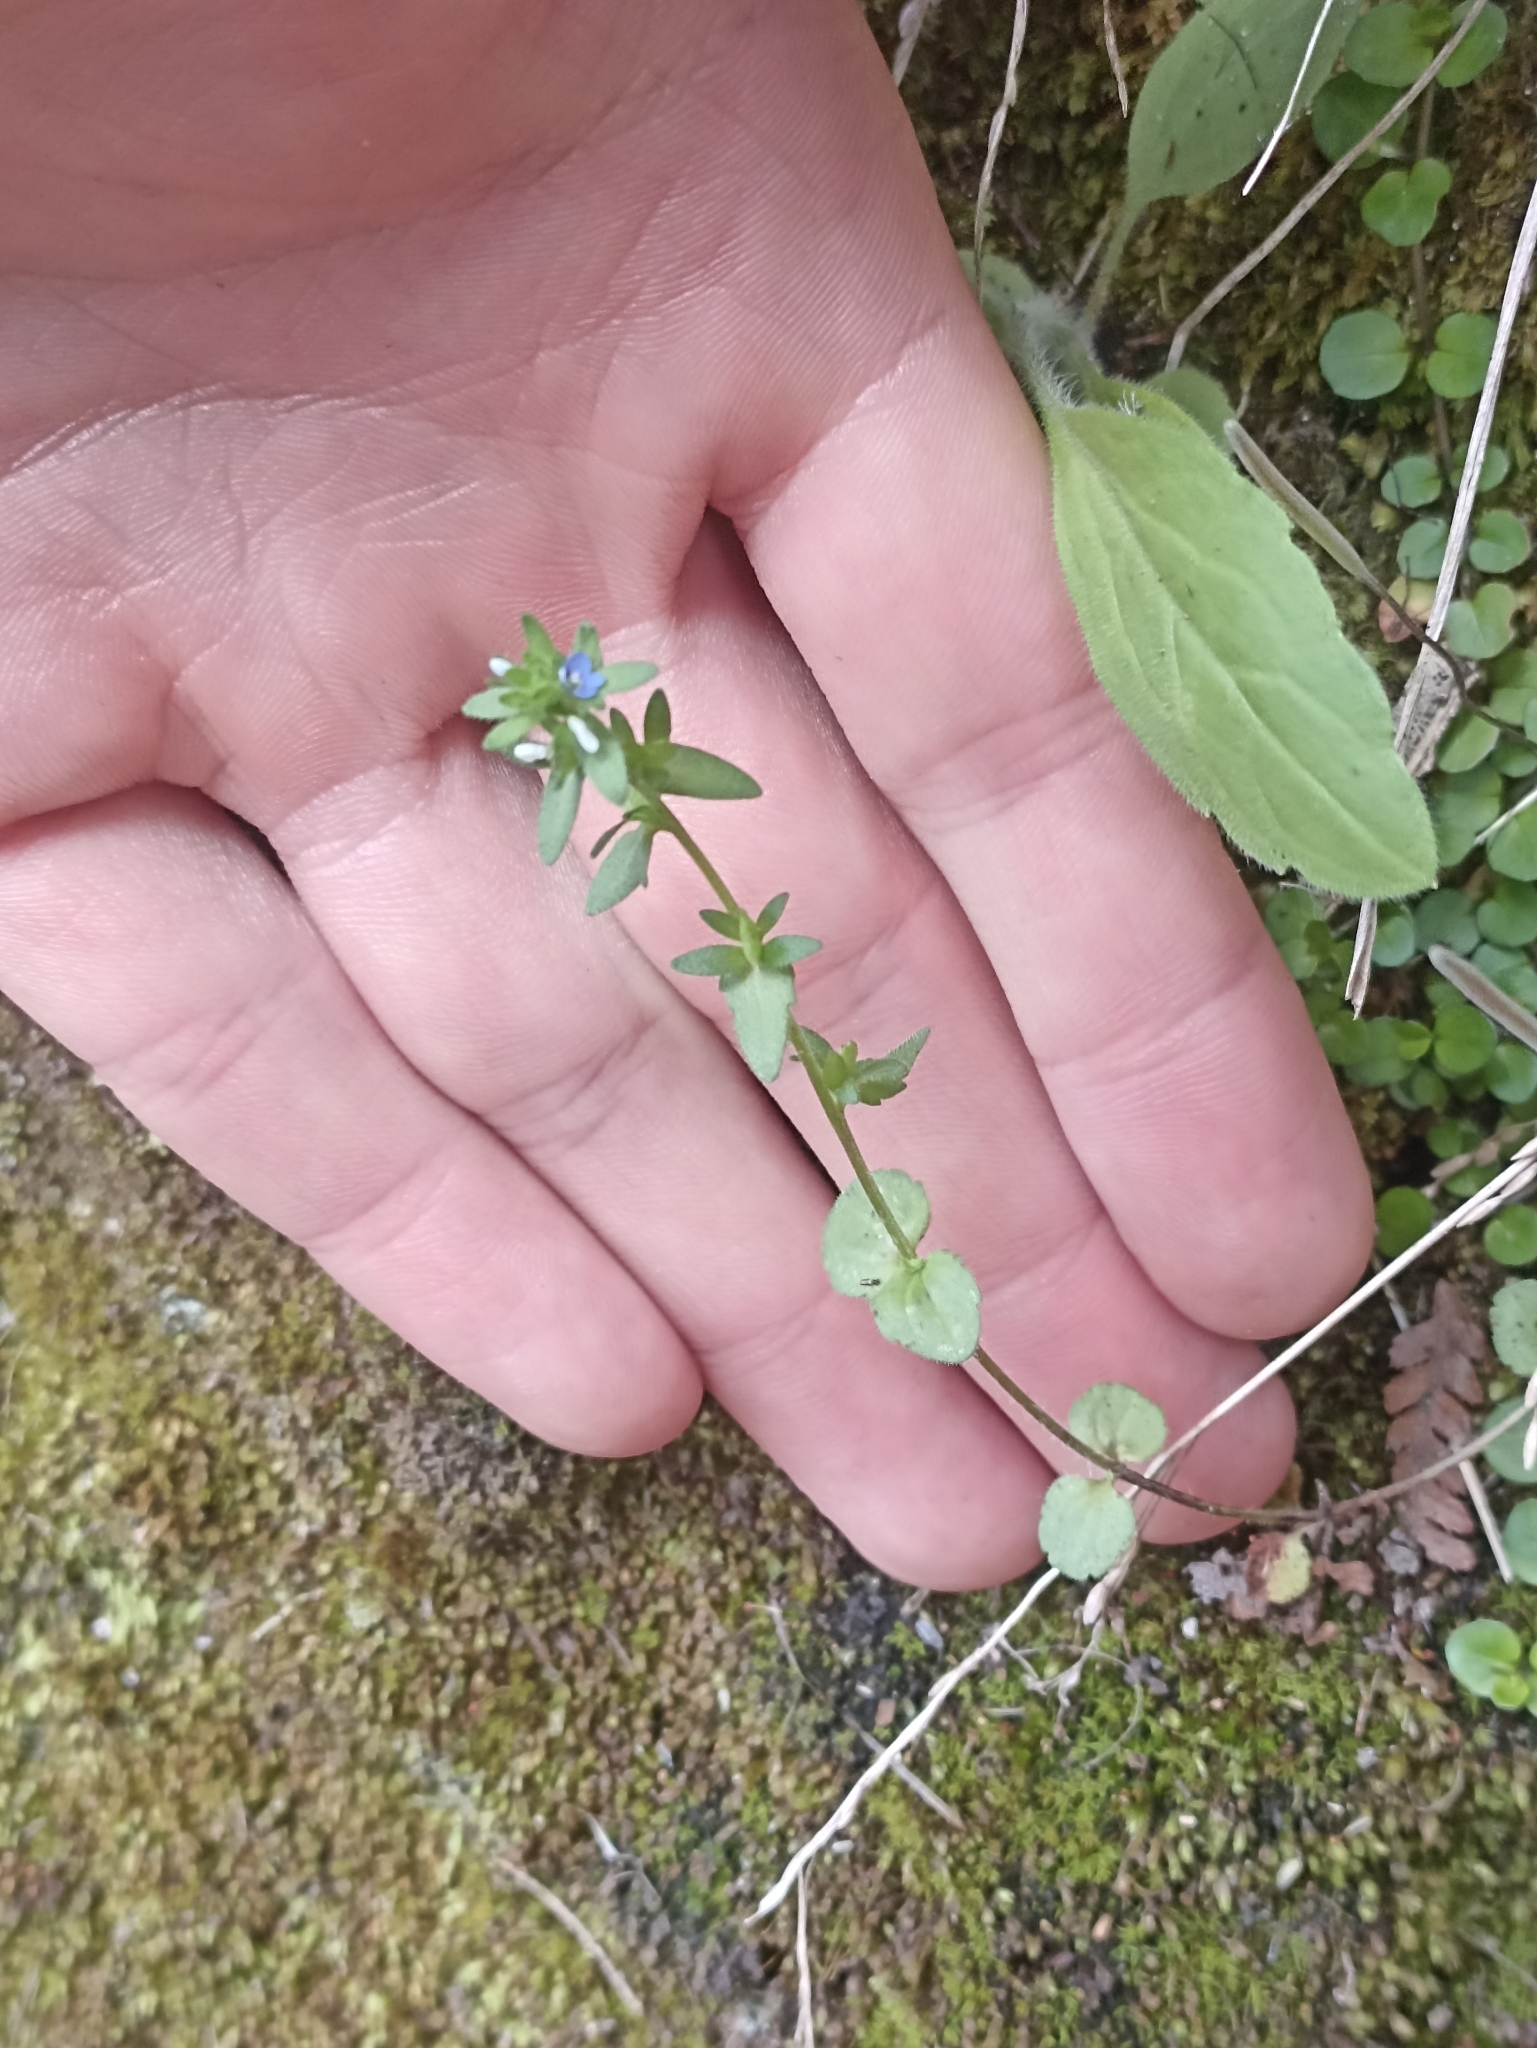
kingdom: Plantae
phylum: Tracheophyta
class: Magnoliopsida
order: Lamiales
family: Plantaginaceae
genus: Veronica
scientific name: Veronica arvensis
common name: Corn speedwell
